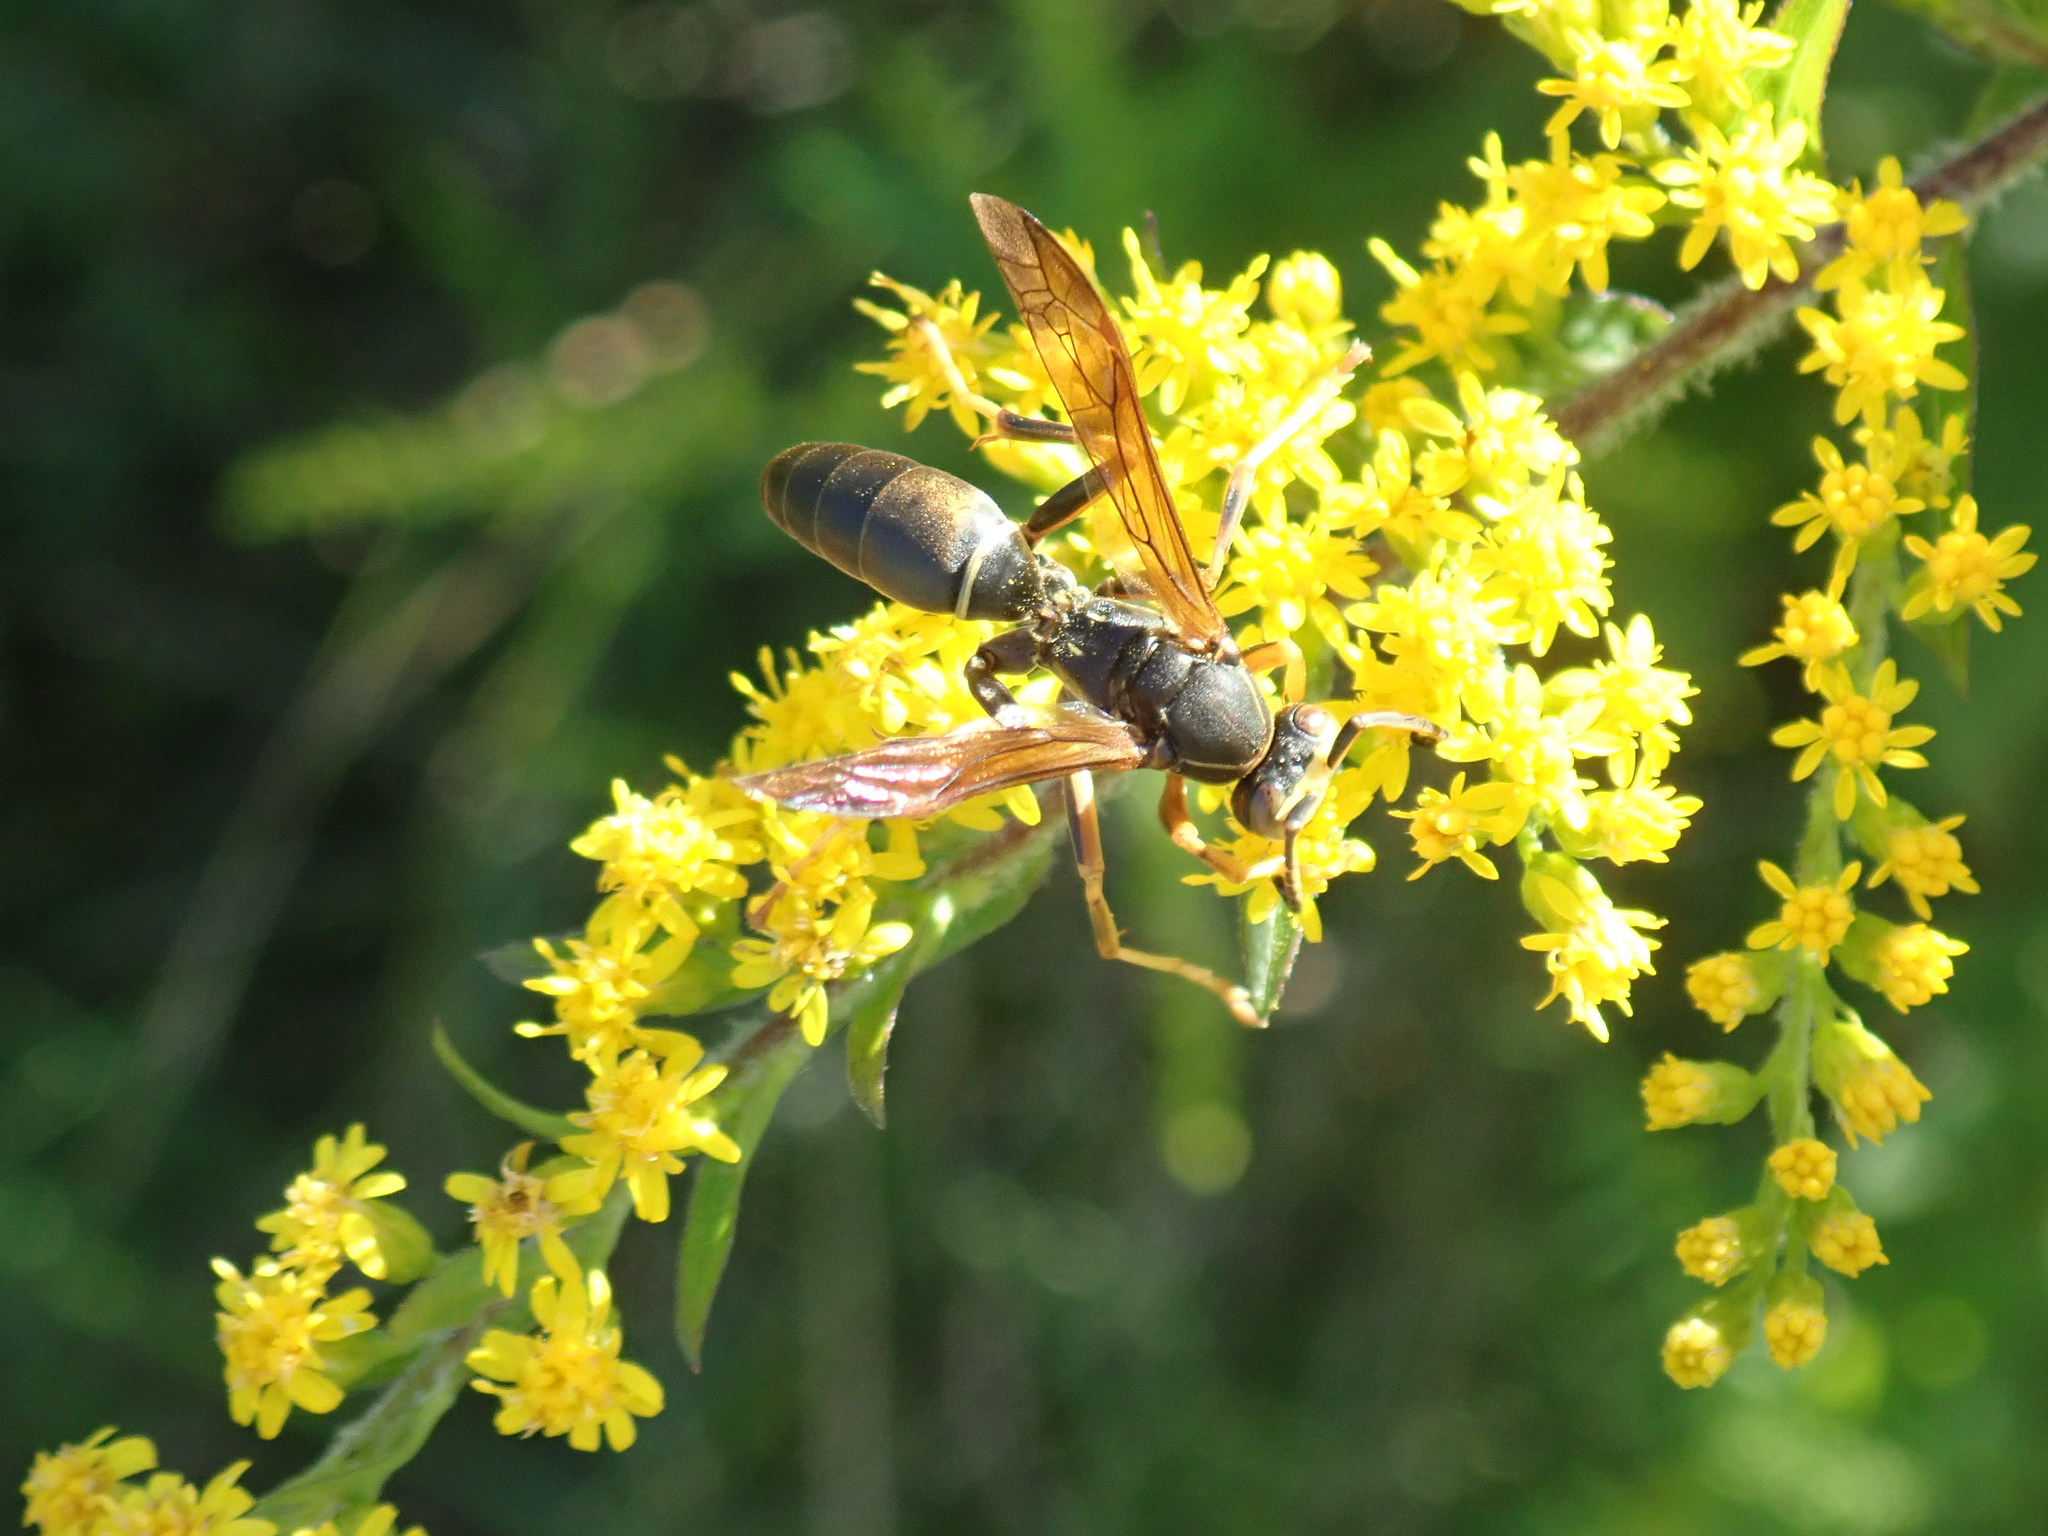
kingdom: Animalia
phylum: Arthropoda
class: Insecta
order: Hymenoptera
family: Eumenidae
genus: Polistes
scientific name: Polistes fuscatus
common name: Dark paper wasp
